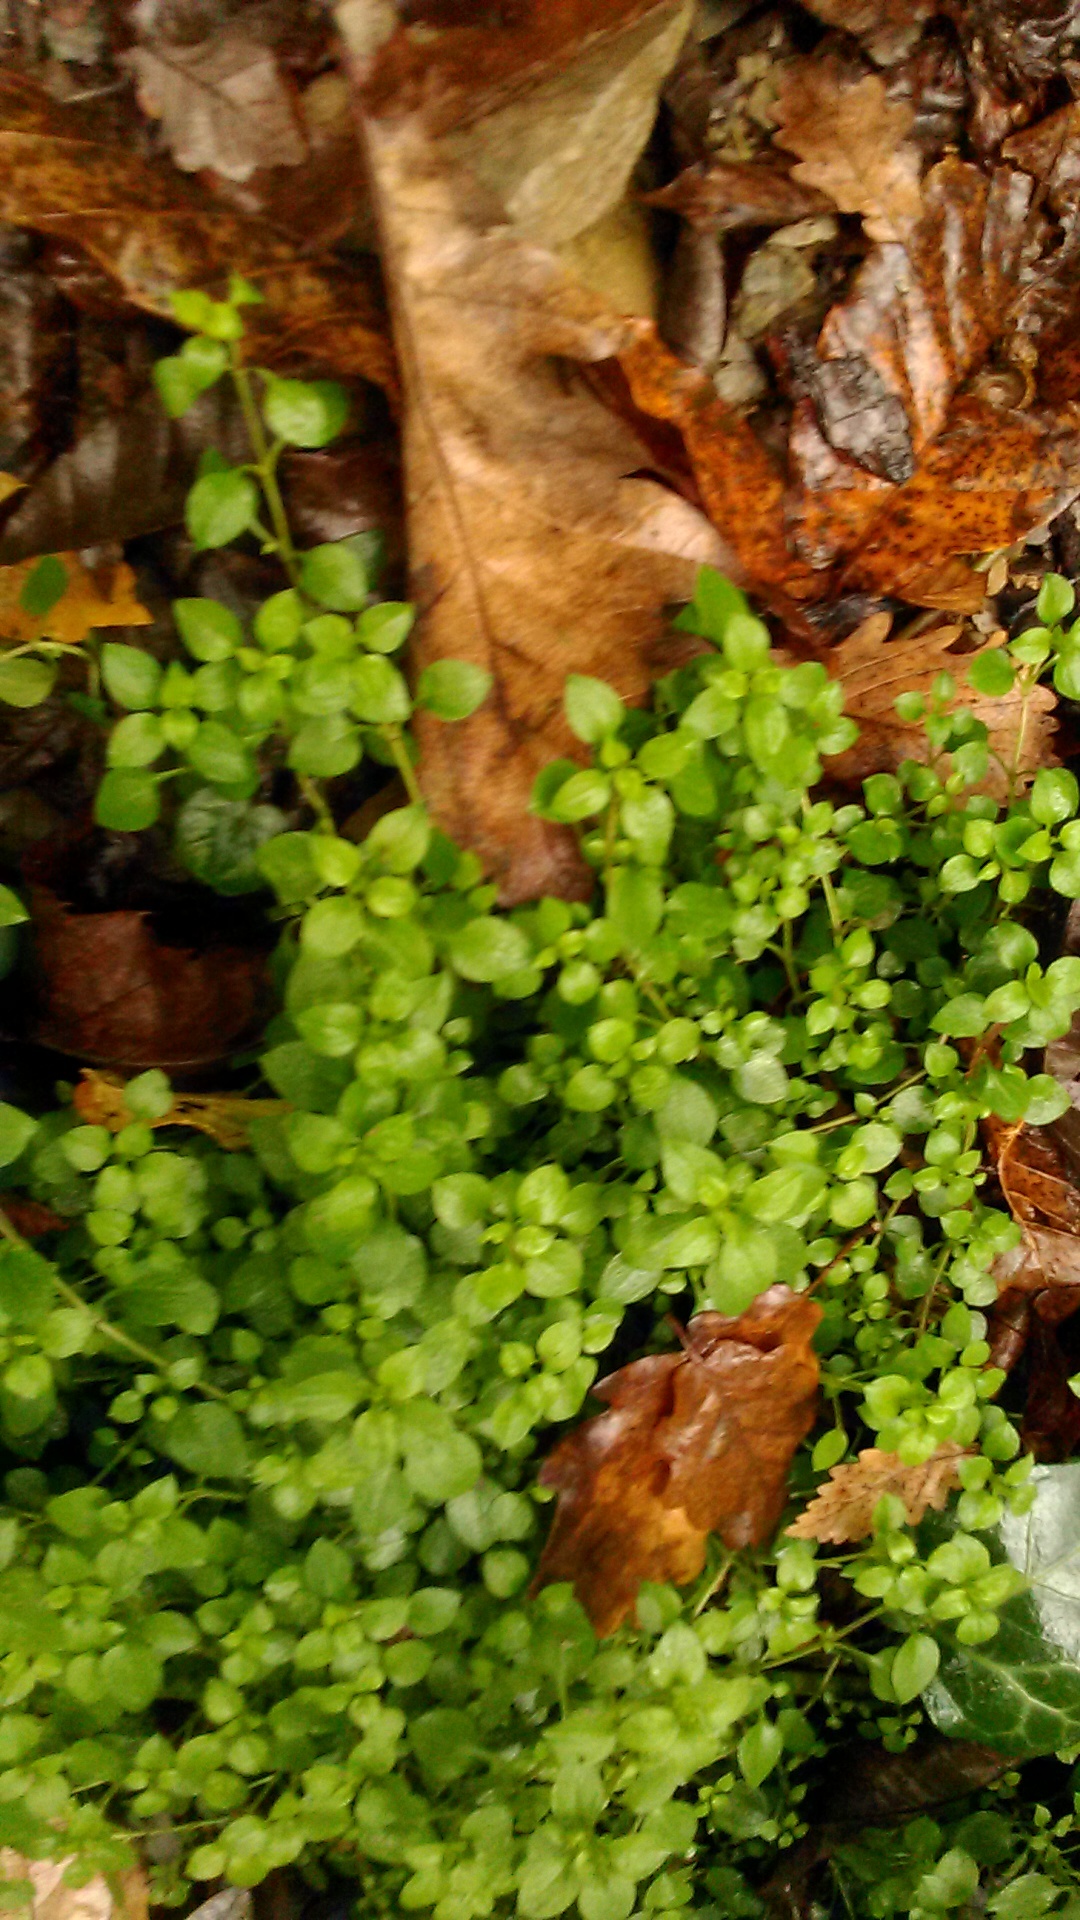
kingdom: Plantae
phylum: Tracheophyta
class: Magnoliopsida
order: Caryophyllales
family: Caryophyllaceae
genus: Stellaria
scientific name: Stellaria media
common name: Common chickweed
